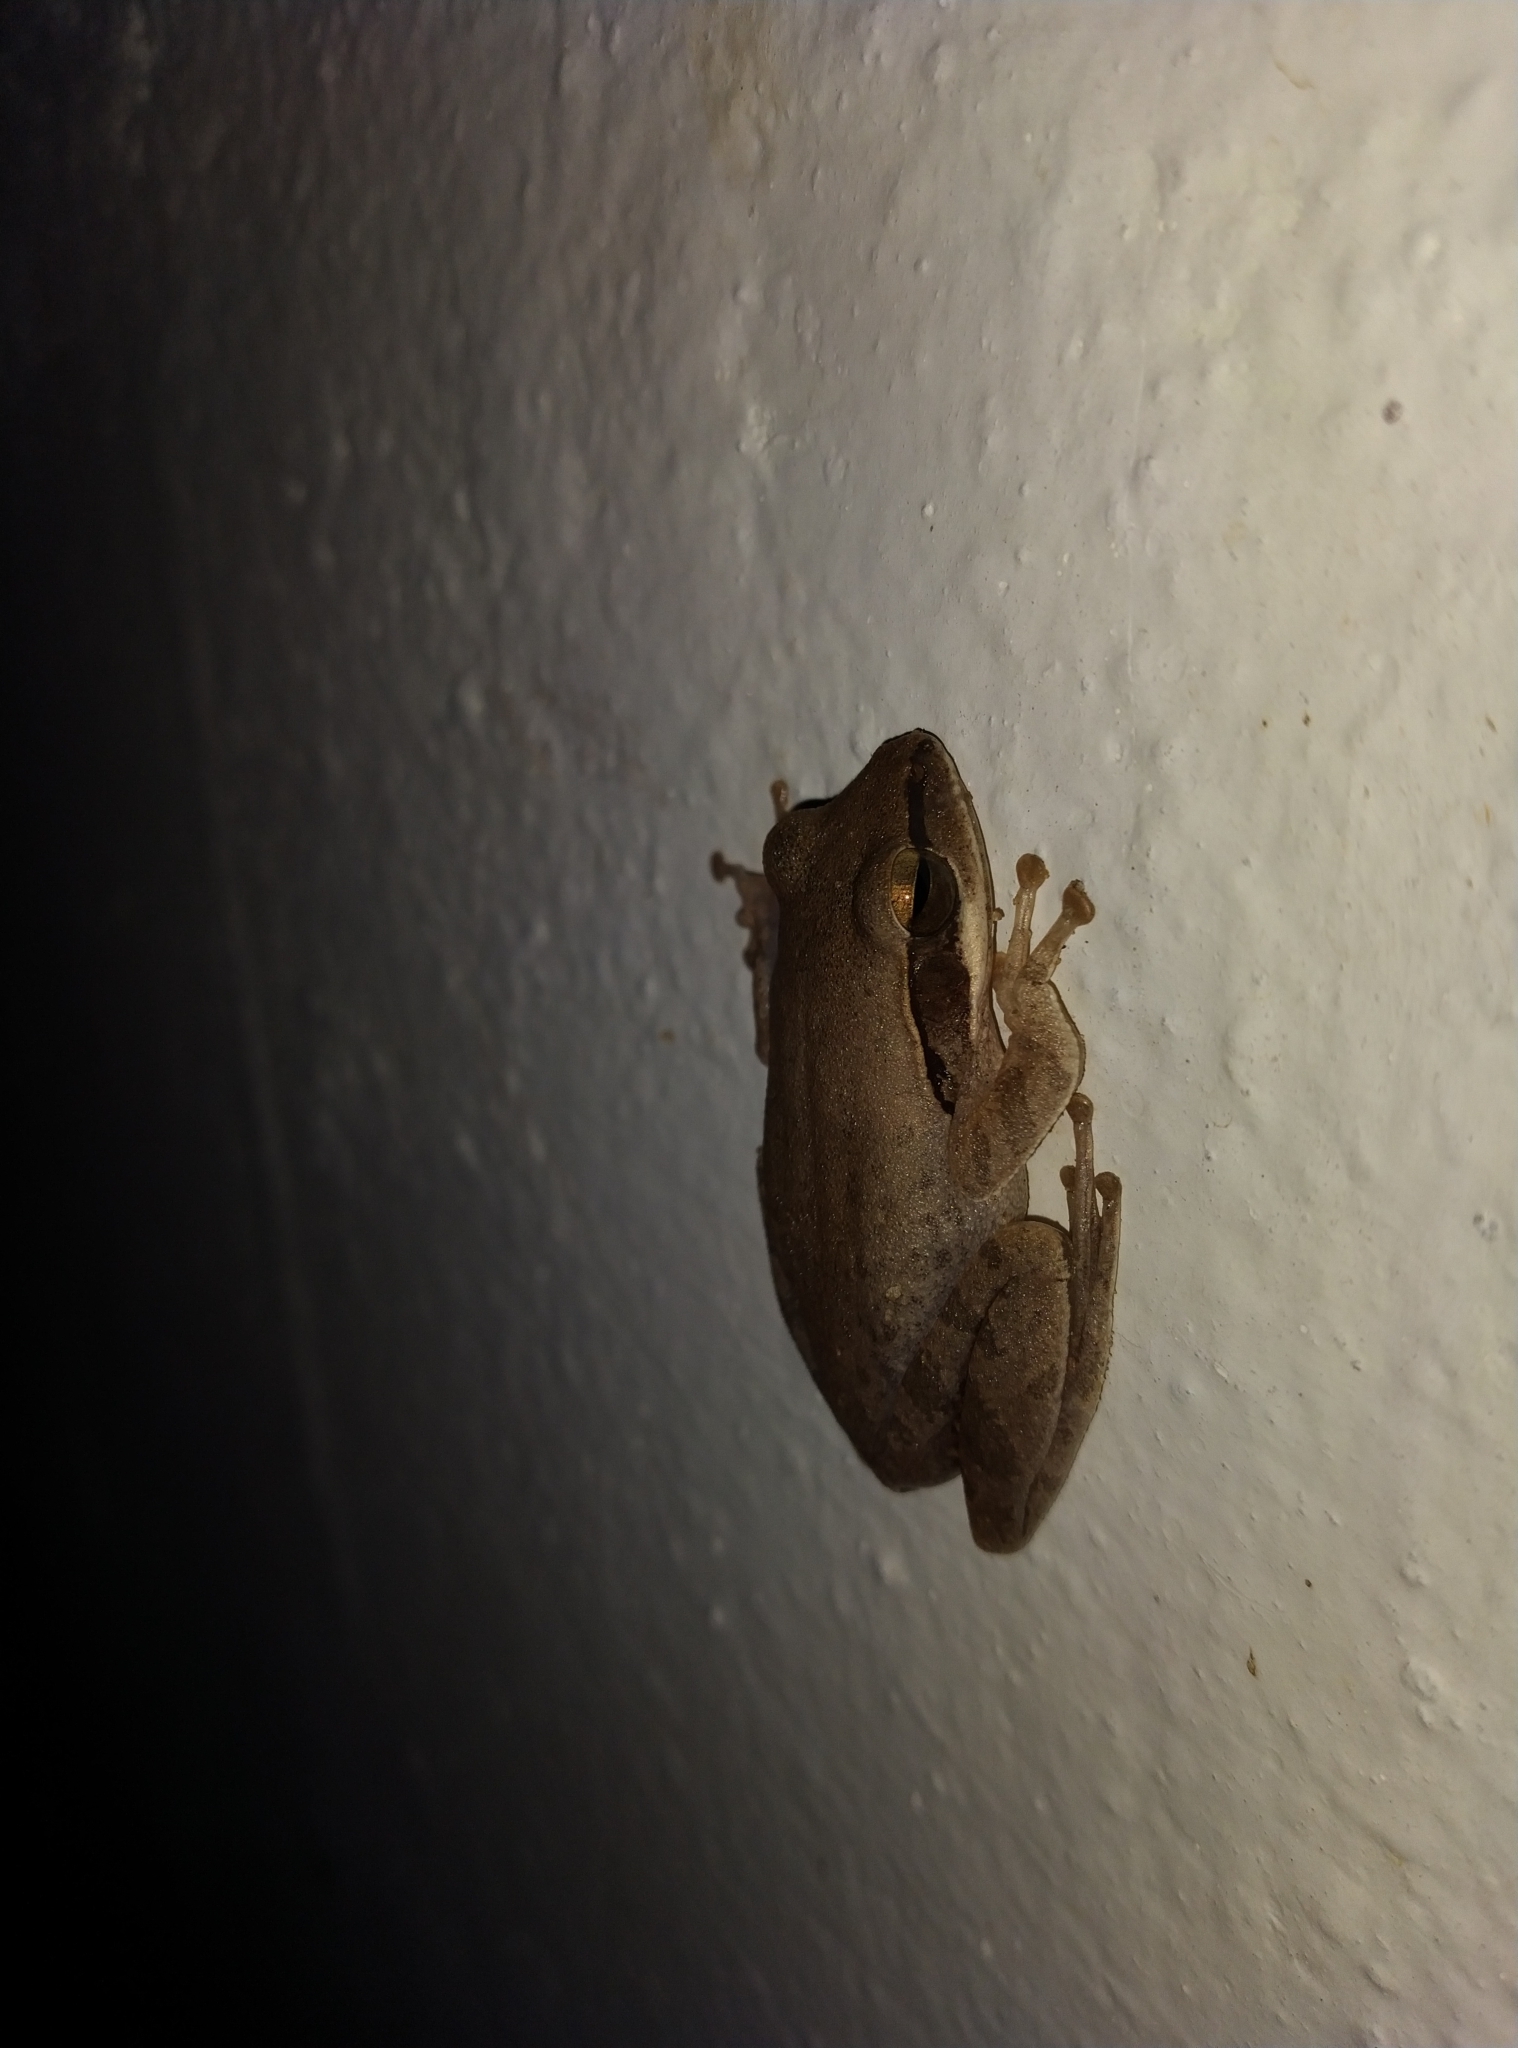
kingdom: Animalia
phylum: Chordata
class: Amphibia
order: Anura
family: Rhacophoridae
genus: Polypedates
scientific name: Polypedates maculatus
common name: Himalayan tree frog
